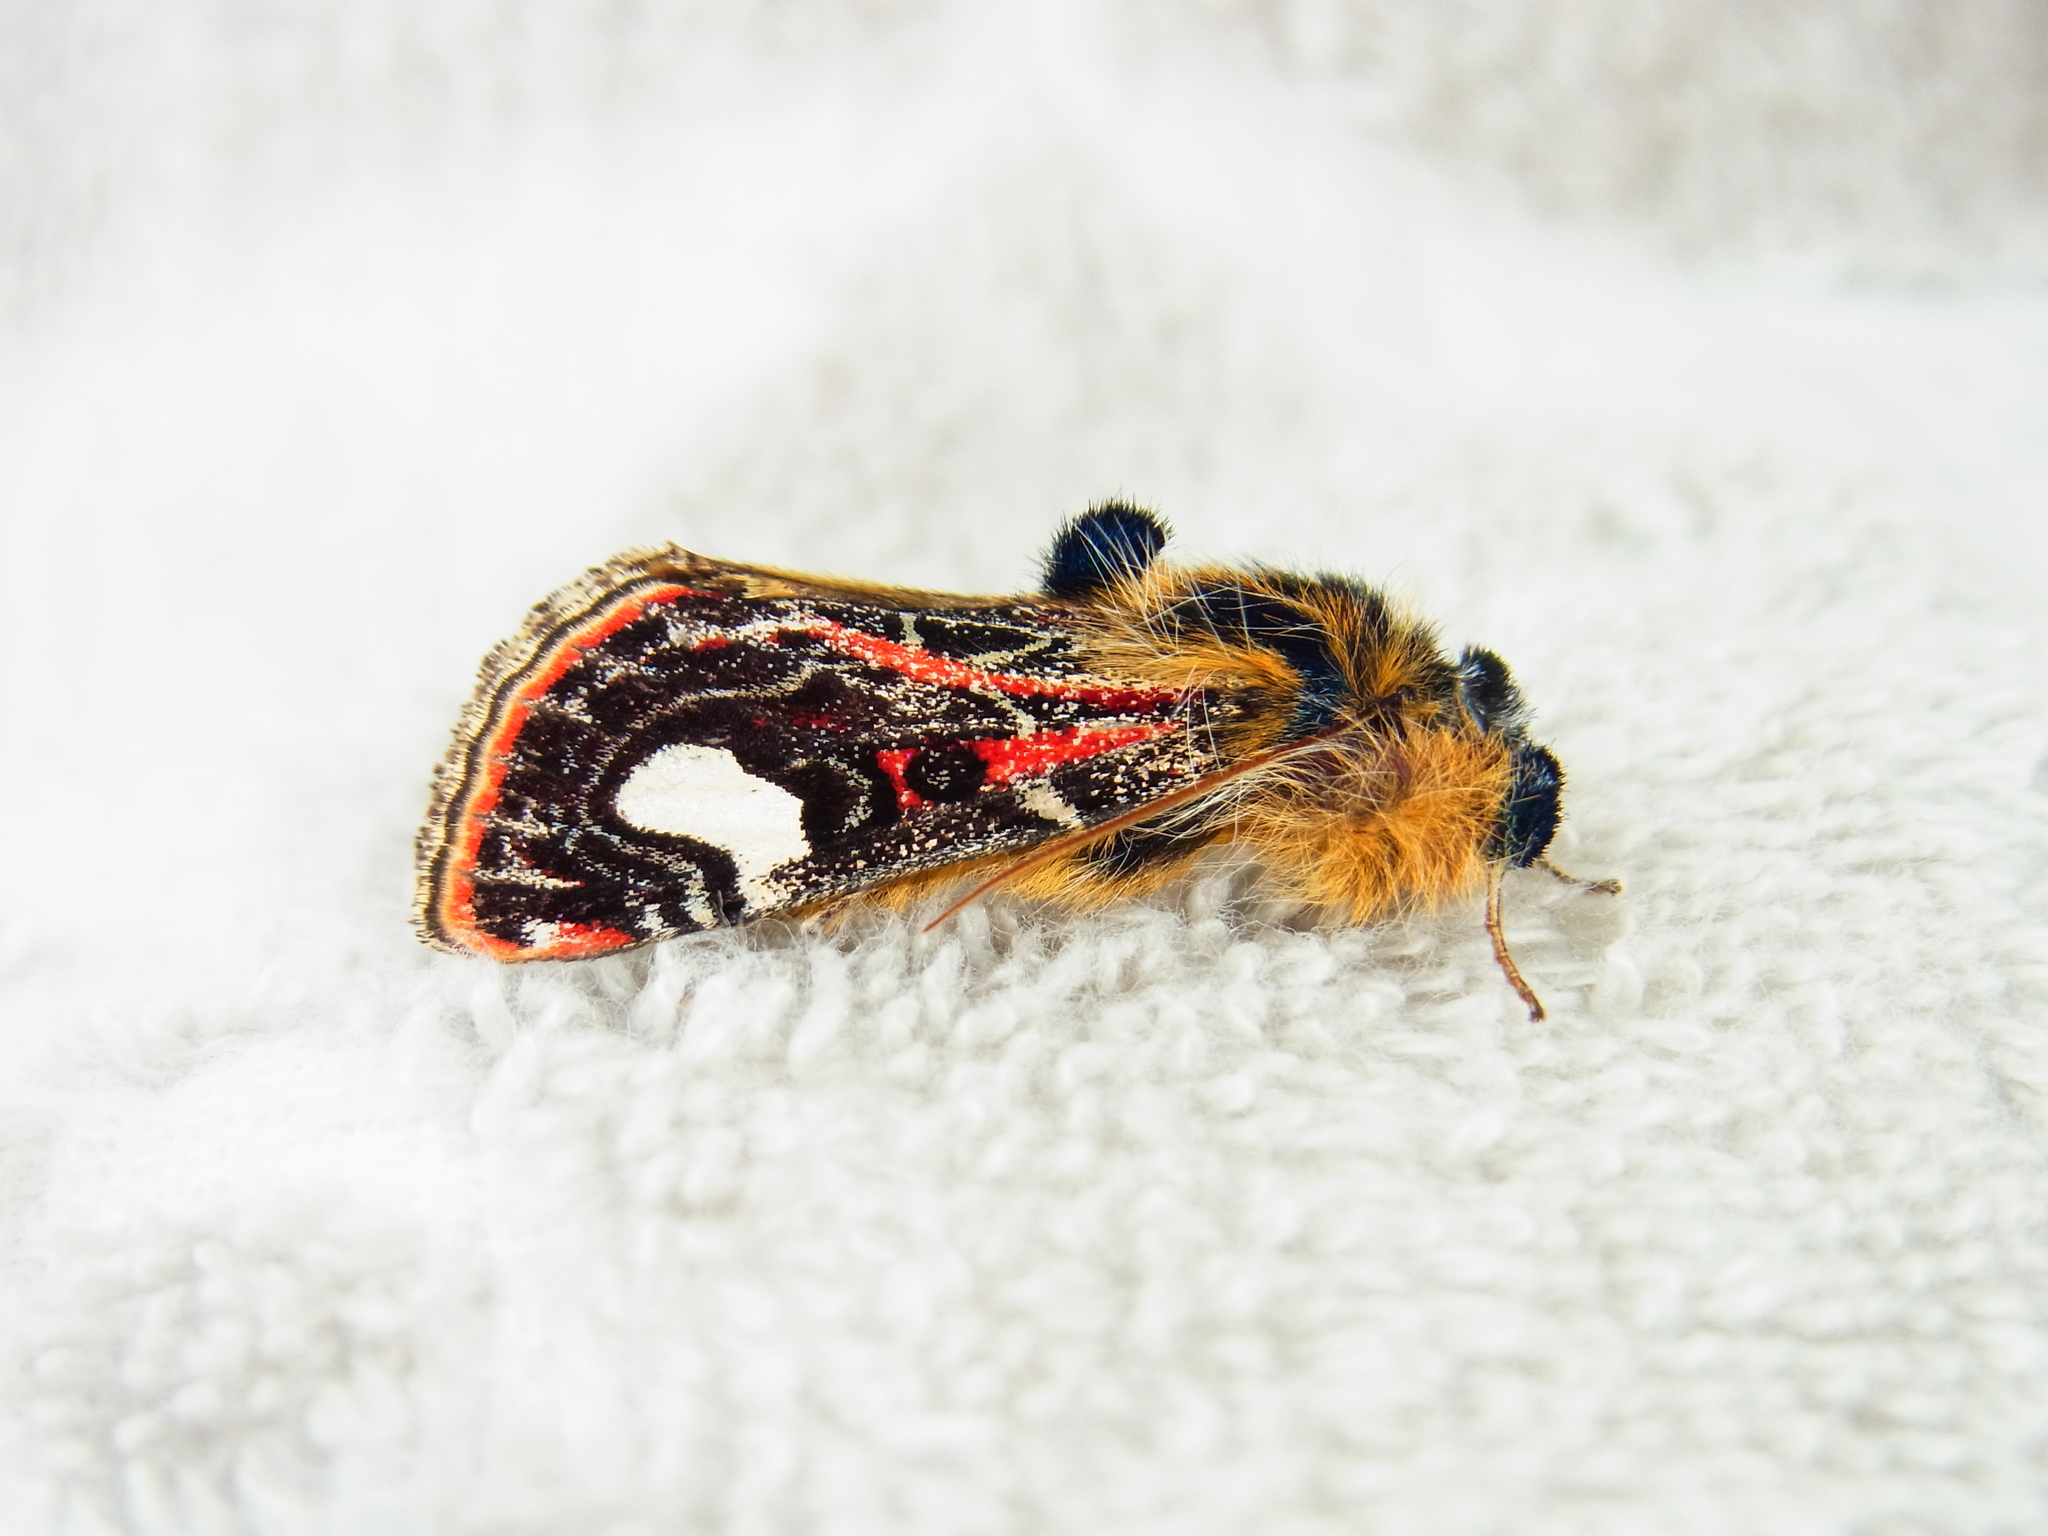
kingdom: Animalia
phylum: Arthropoda
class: Insecta
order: Lepidoptera
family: Noctuidae
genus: Maikona
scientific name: Maikona jezoensis
